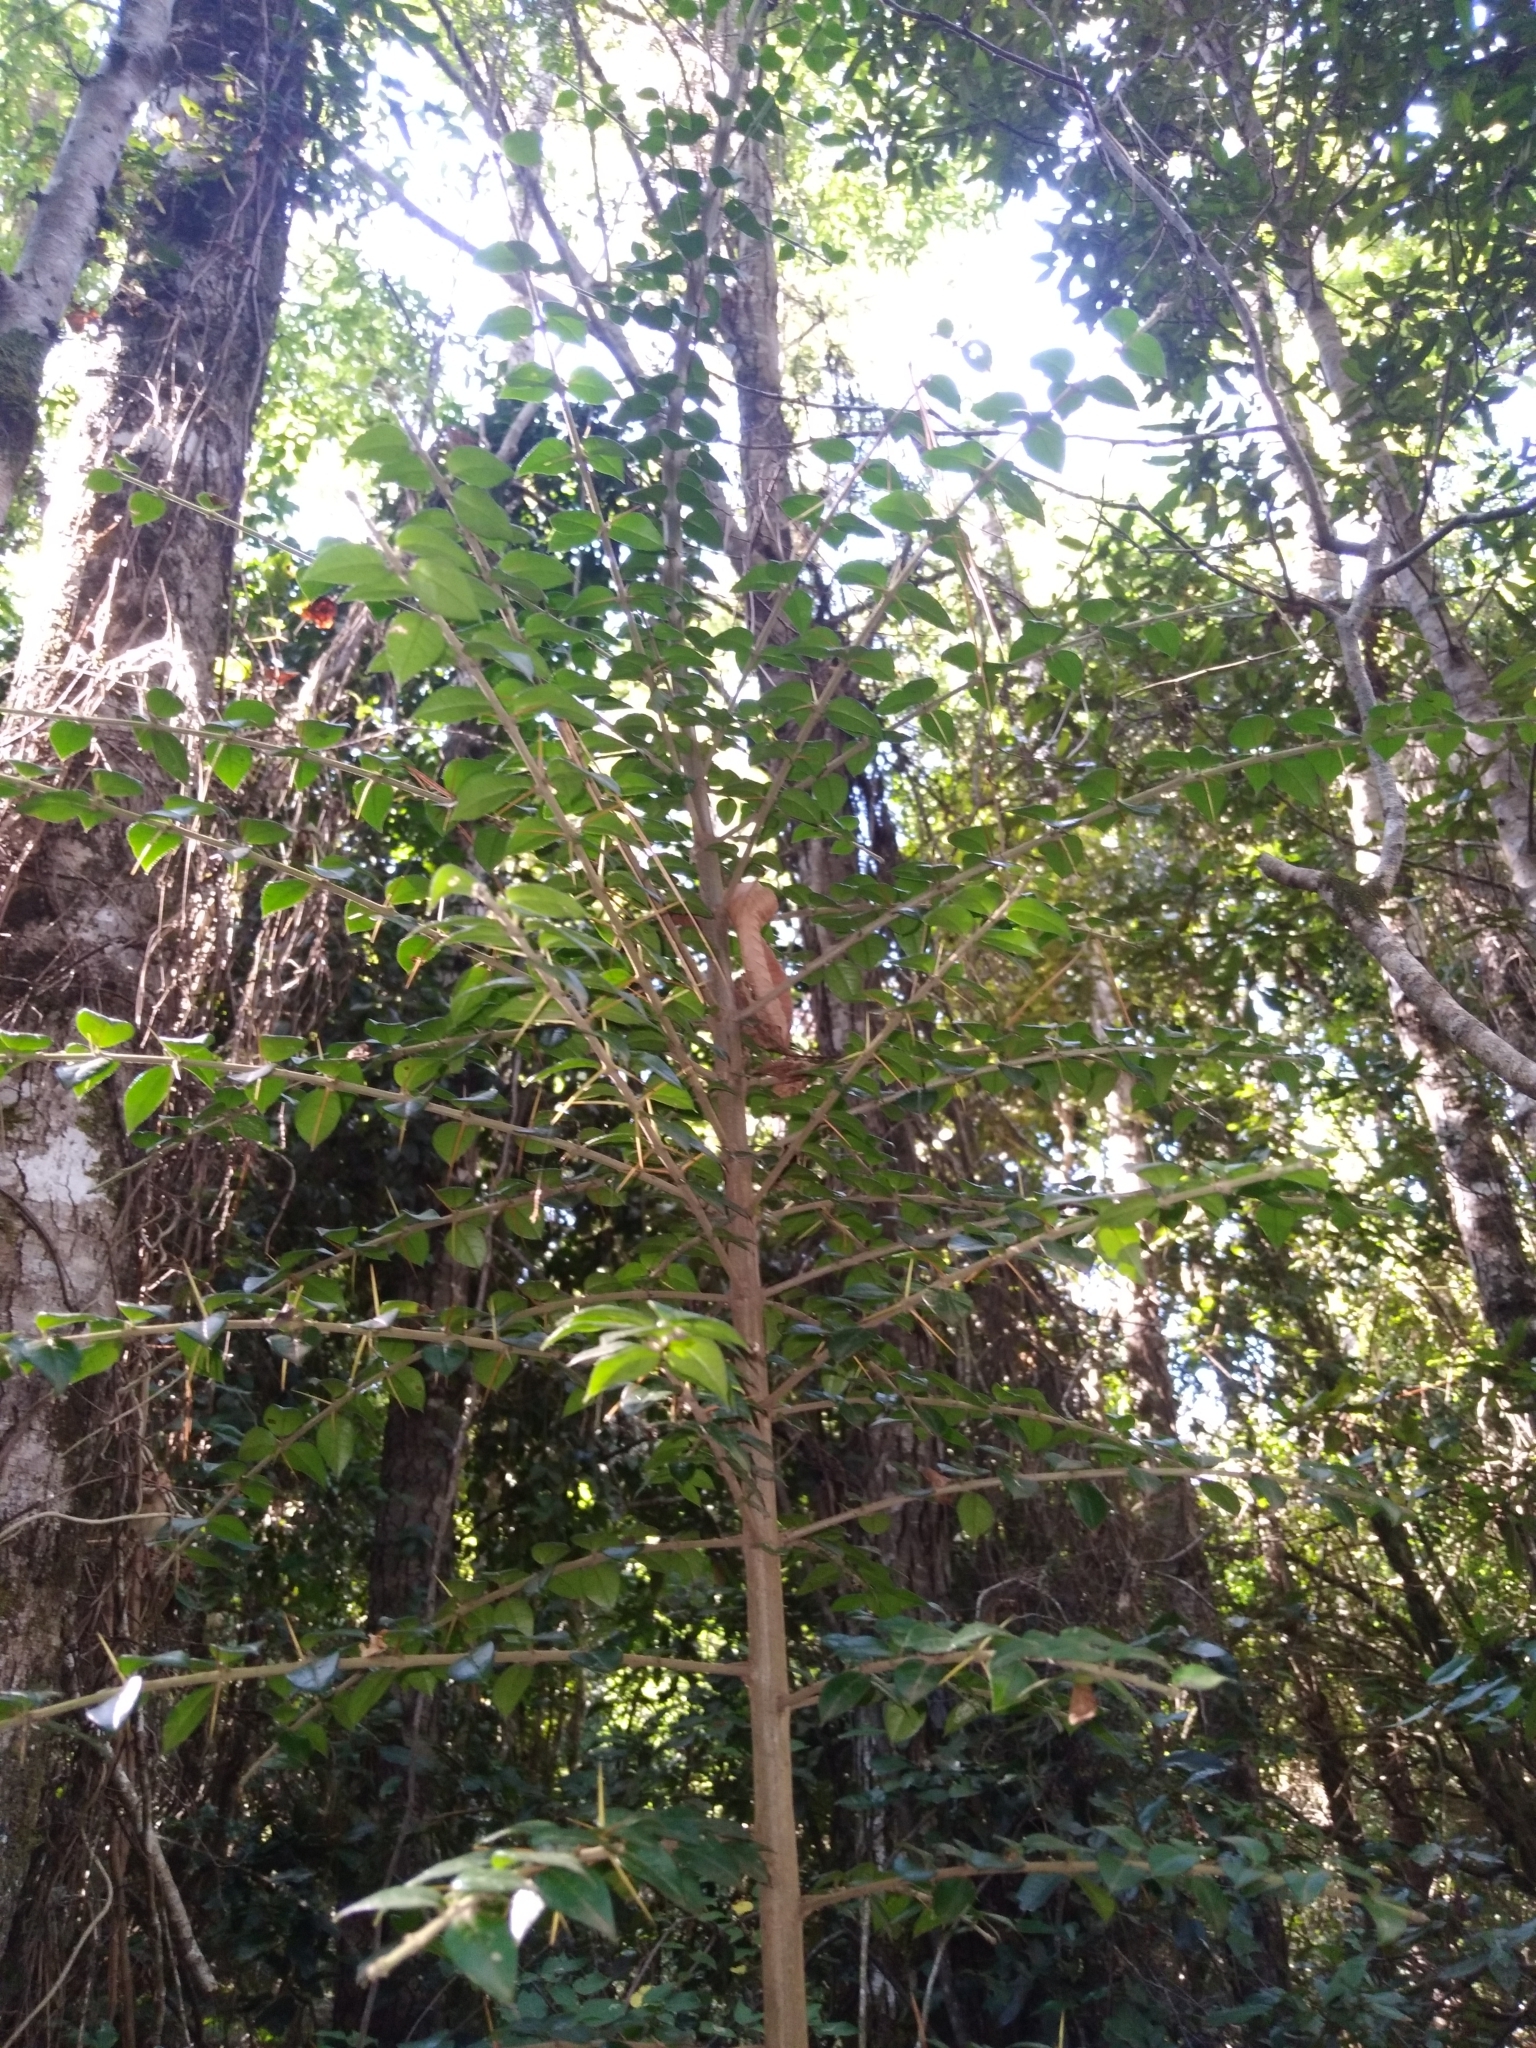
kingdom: Plantae
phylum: Tracheophyta
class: Magnoliopsida
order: Lamiales
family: Verbenaceae
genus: Rhaphithamnus
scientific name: Rhaphithamnus spinosus
